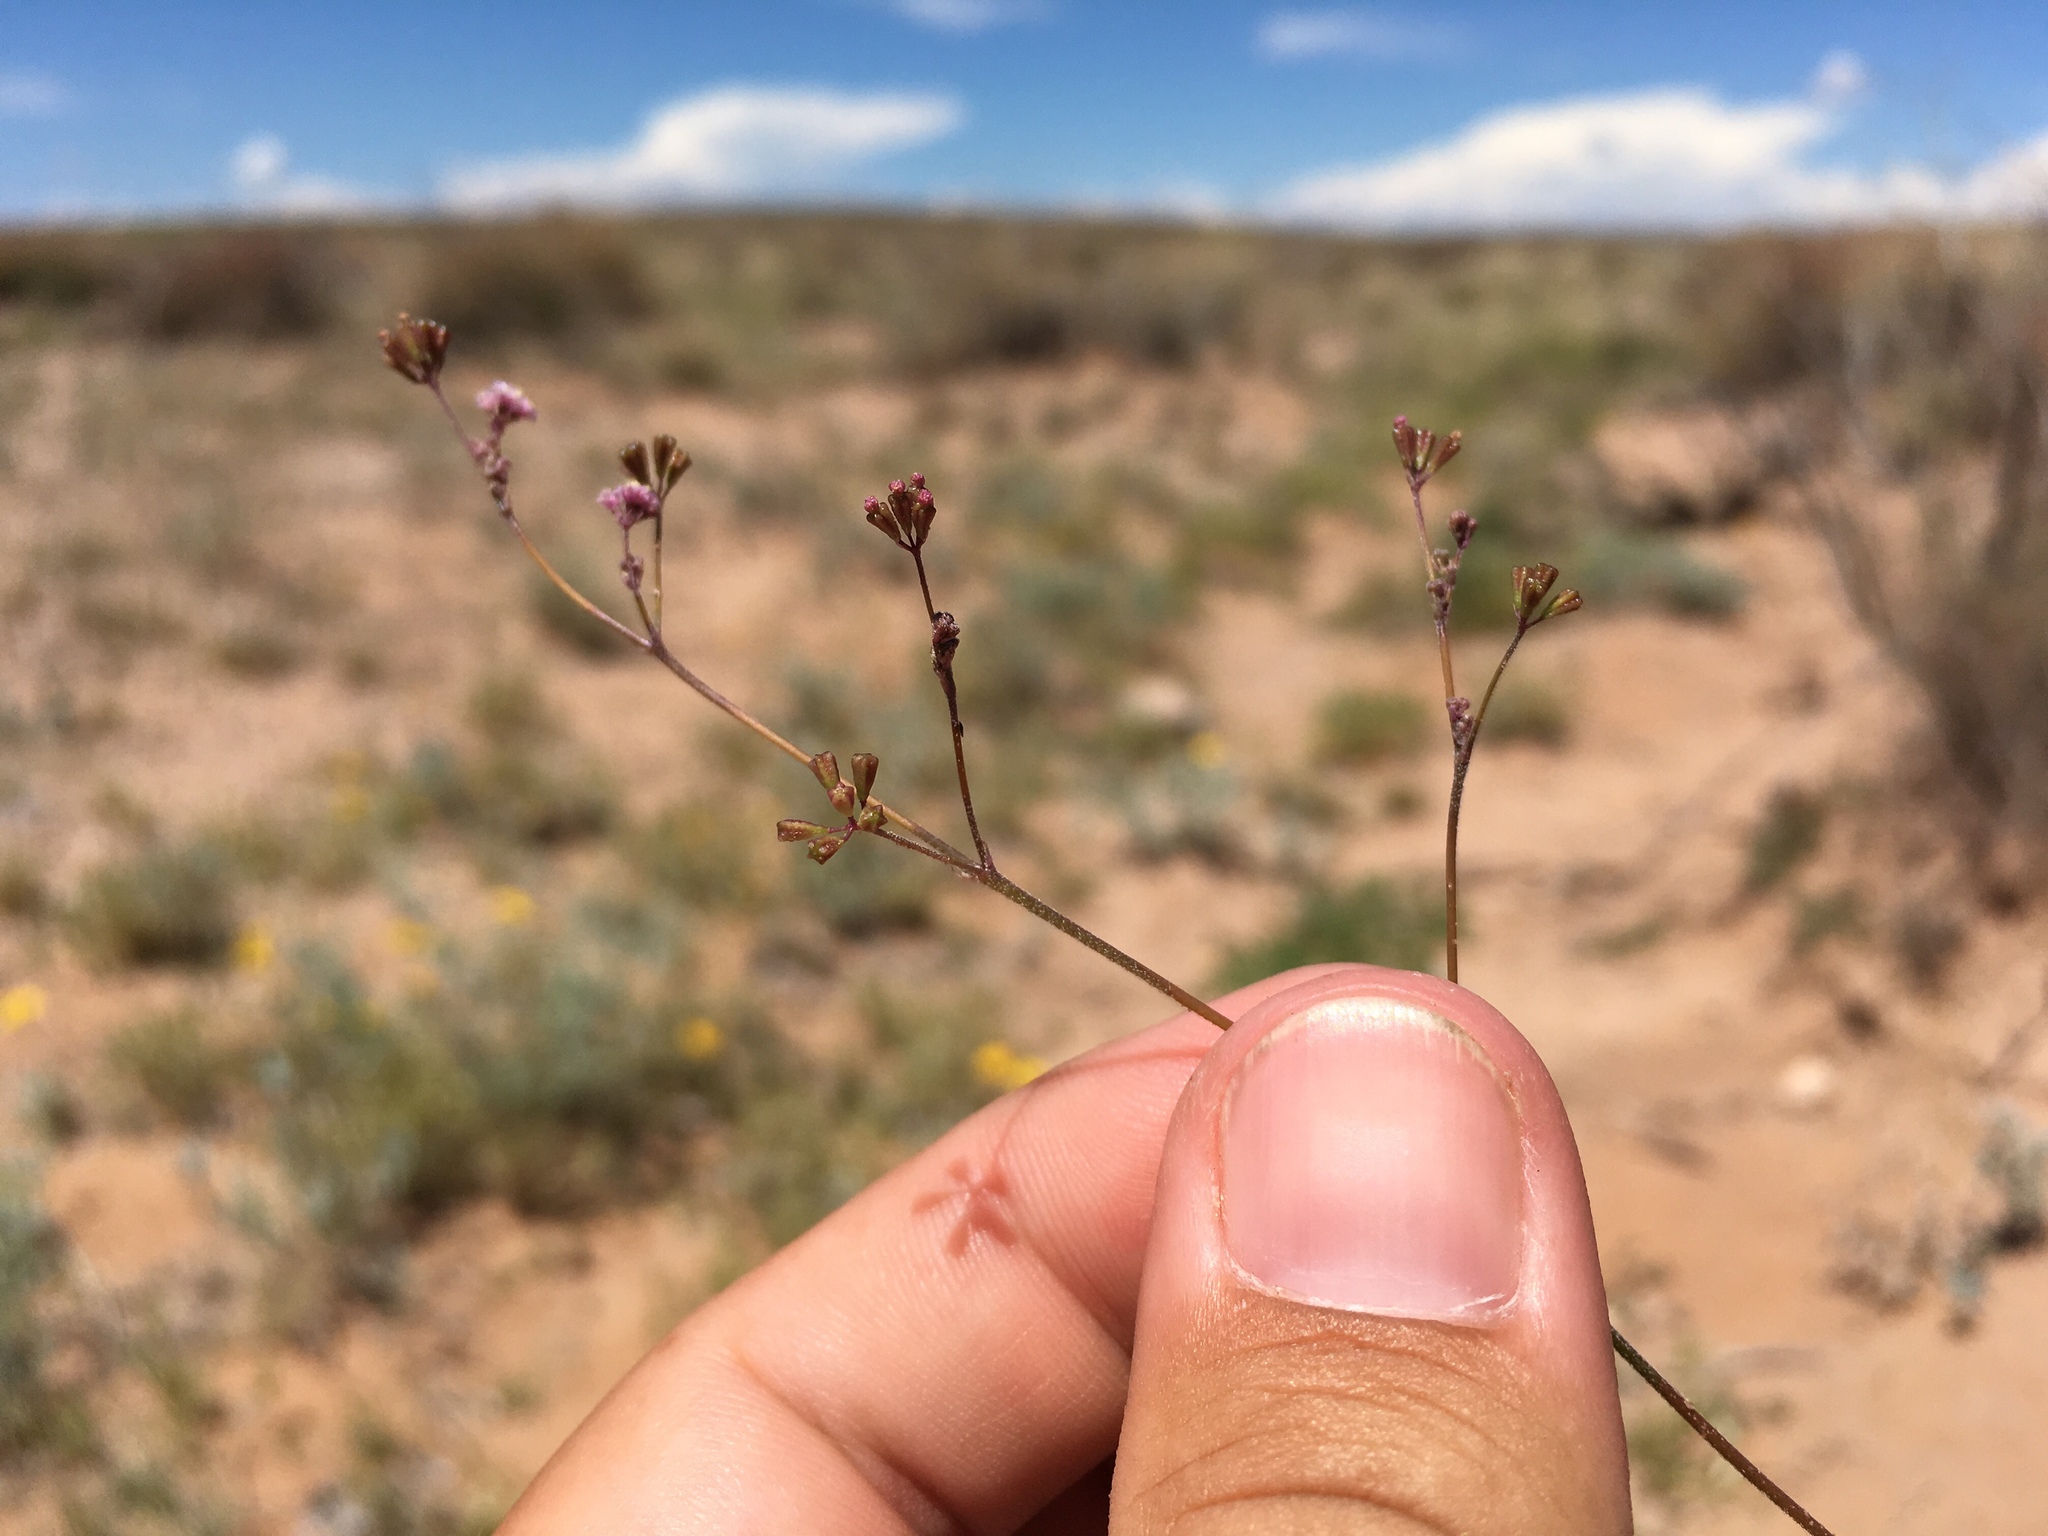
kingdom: Plantae
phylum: Tracheophyta
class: Magnoliopsida
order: Caryophyllales
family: Nyctaginaceae
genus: Boerhavia
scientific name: Boerhavia triquetra
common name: Creeping sticky-stem
